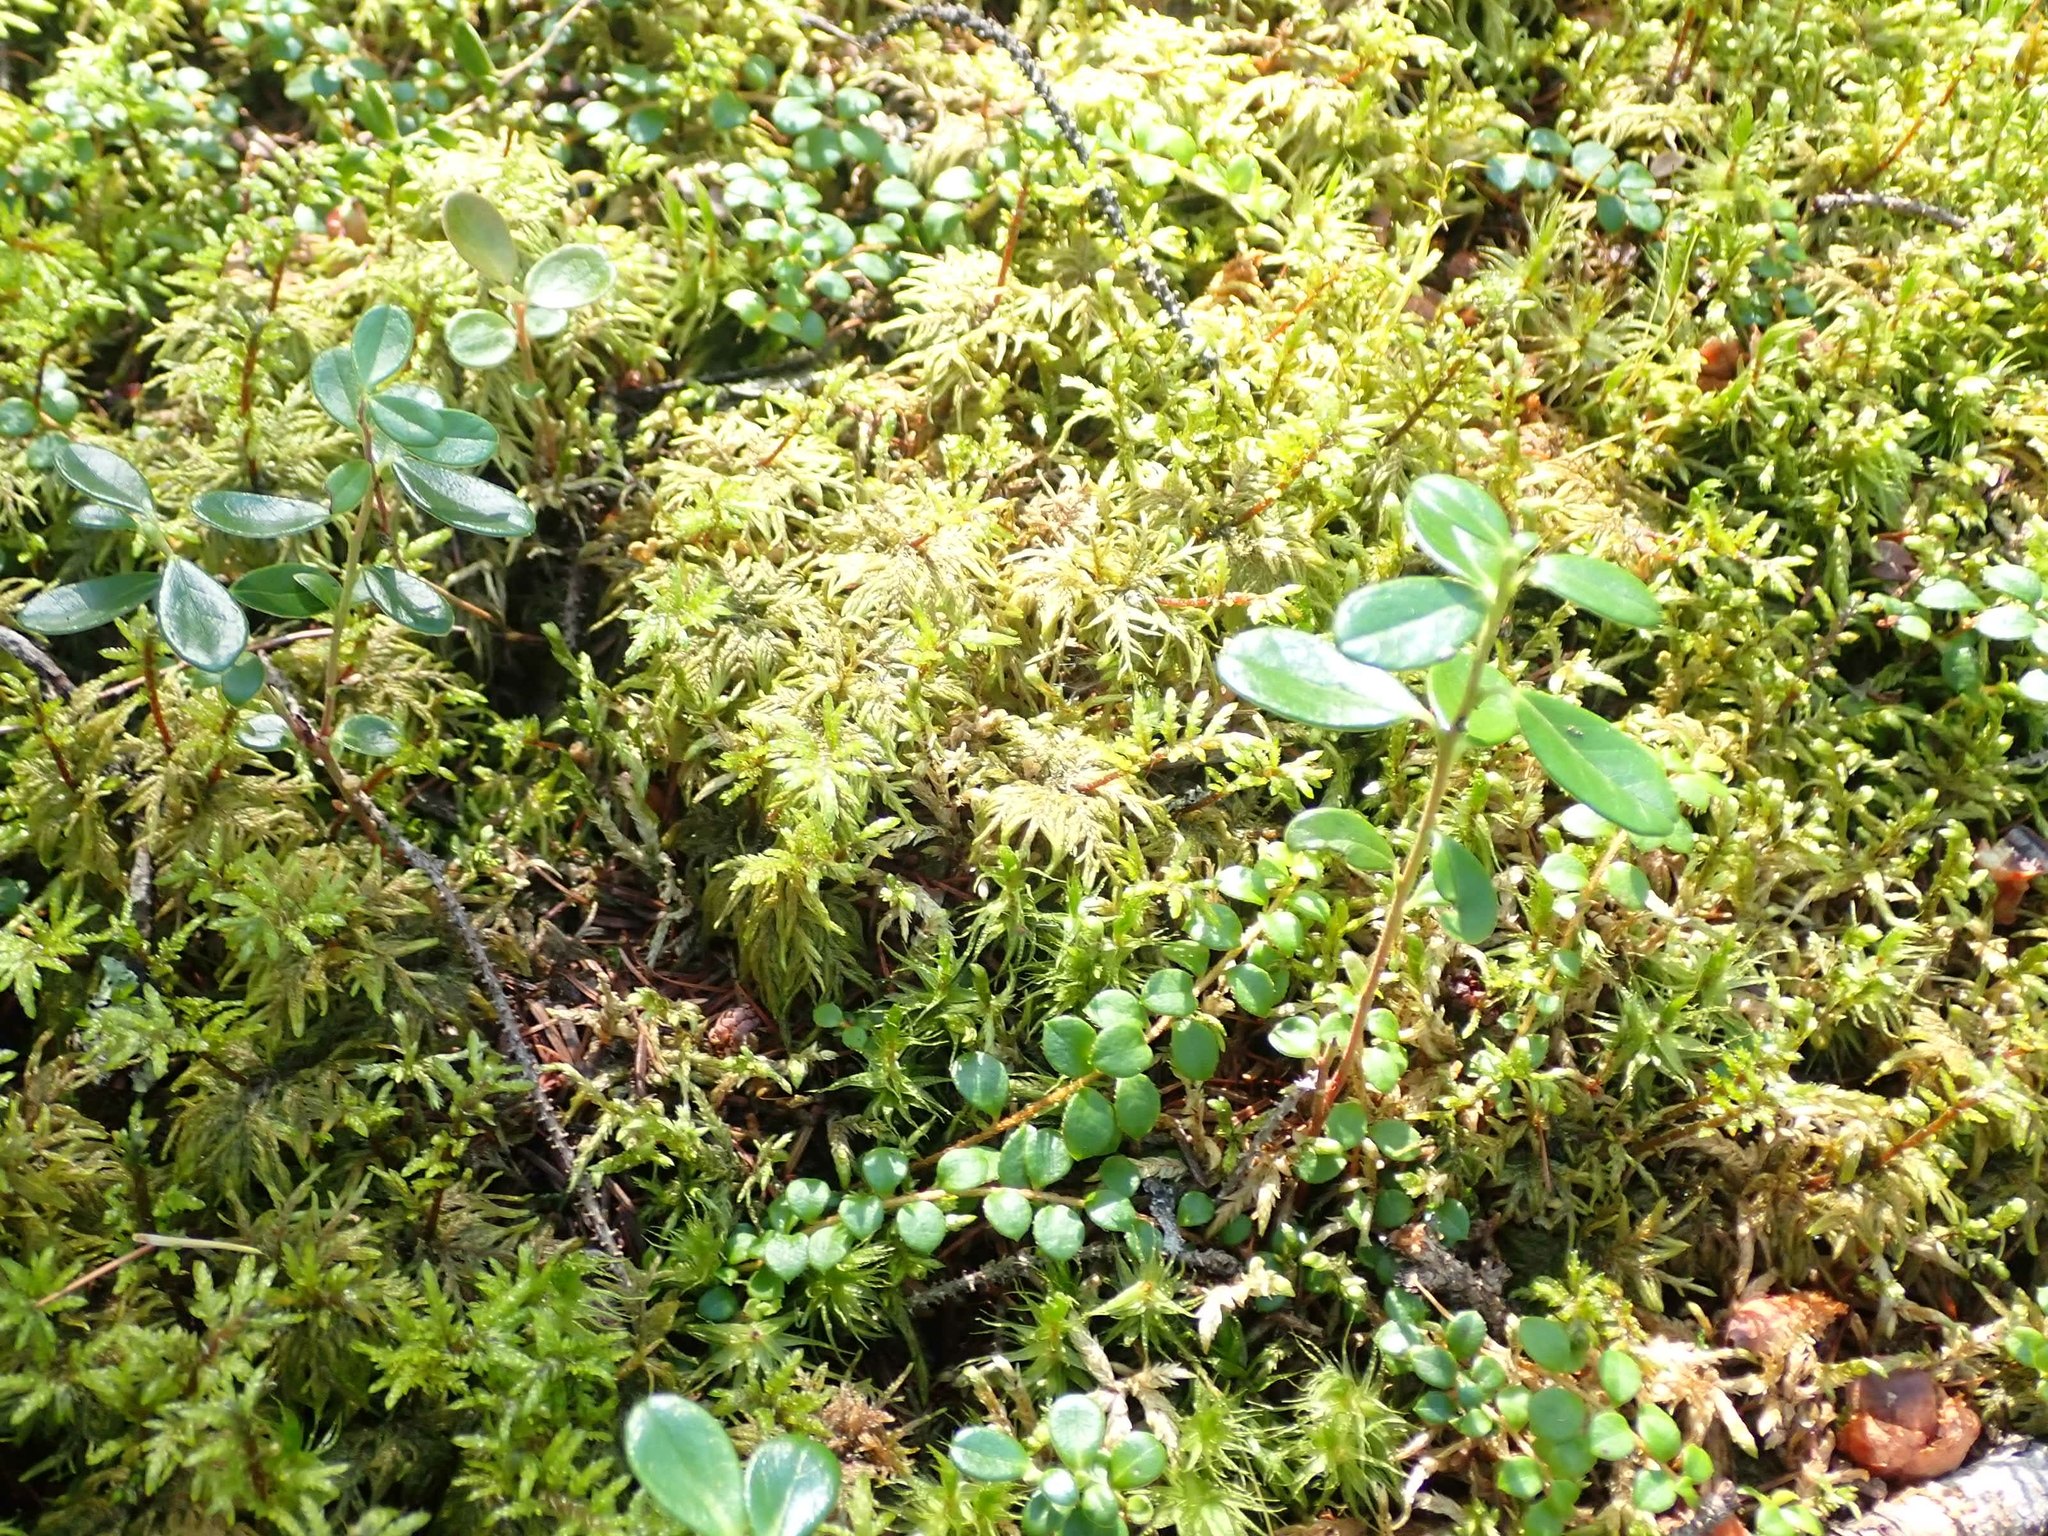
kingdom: Plantae
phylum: Tracheophyta
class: Magnoliopsida
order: Ericales
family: Ericaceae
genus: Vaccinium
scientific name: Vaccinium vitis-idaea
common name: Cowberry
